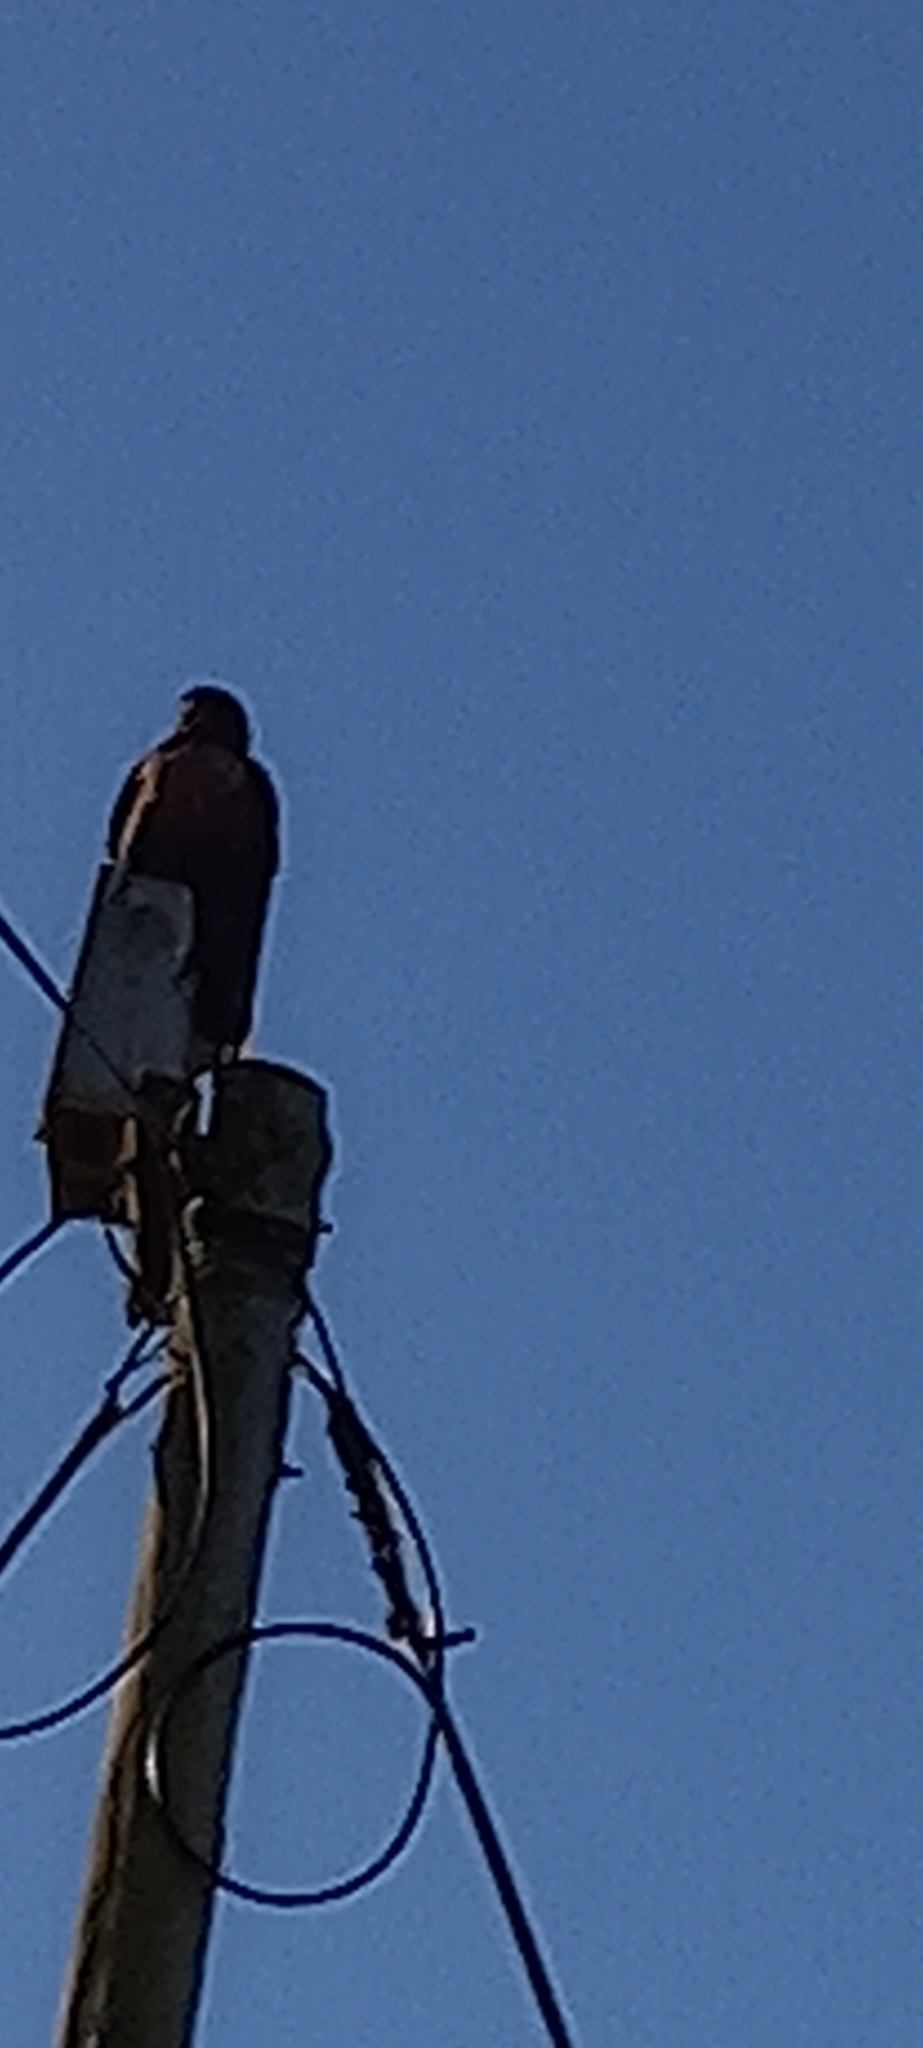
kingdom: Animalia
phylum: Chordata
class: Aves
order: Accipitriformes
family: Accipitridae
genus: Buteo
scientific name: Buteo rufofuscus
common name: Jackal buzzard
